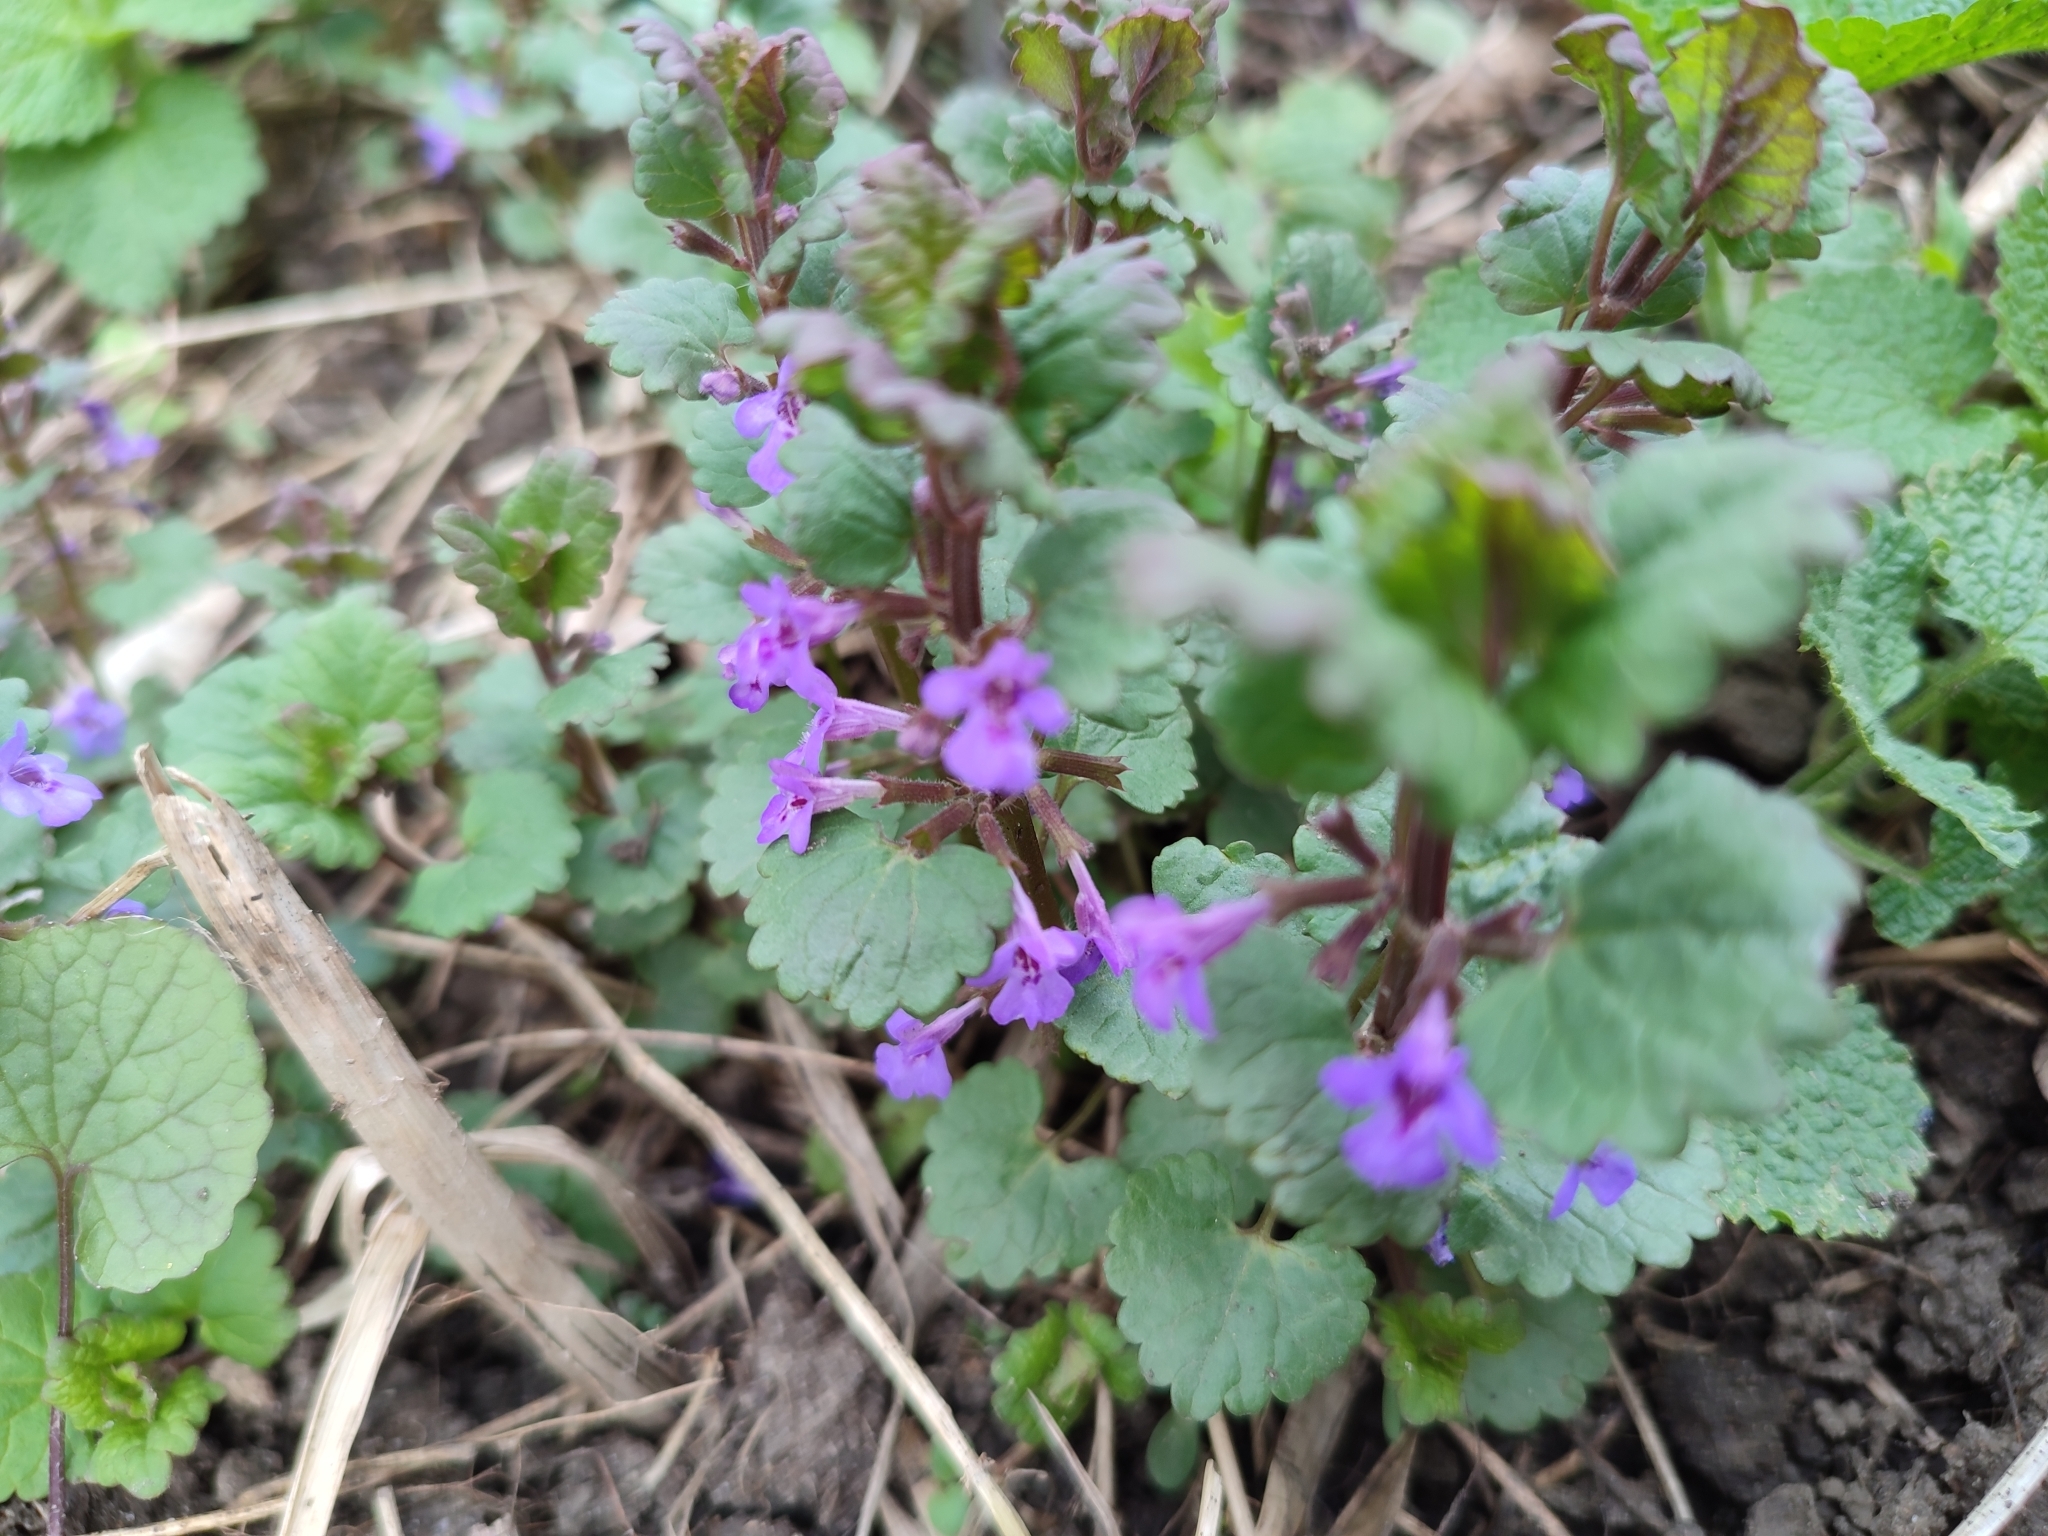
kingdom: Plantae
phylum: Tracheophyta
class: Magnoliopsida
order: Lamiales
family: Lamiaceae
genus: Glechoma
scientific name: Glechoma hederacea
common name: Ground ivy
